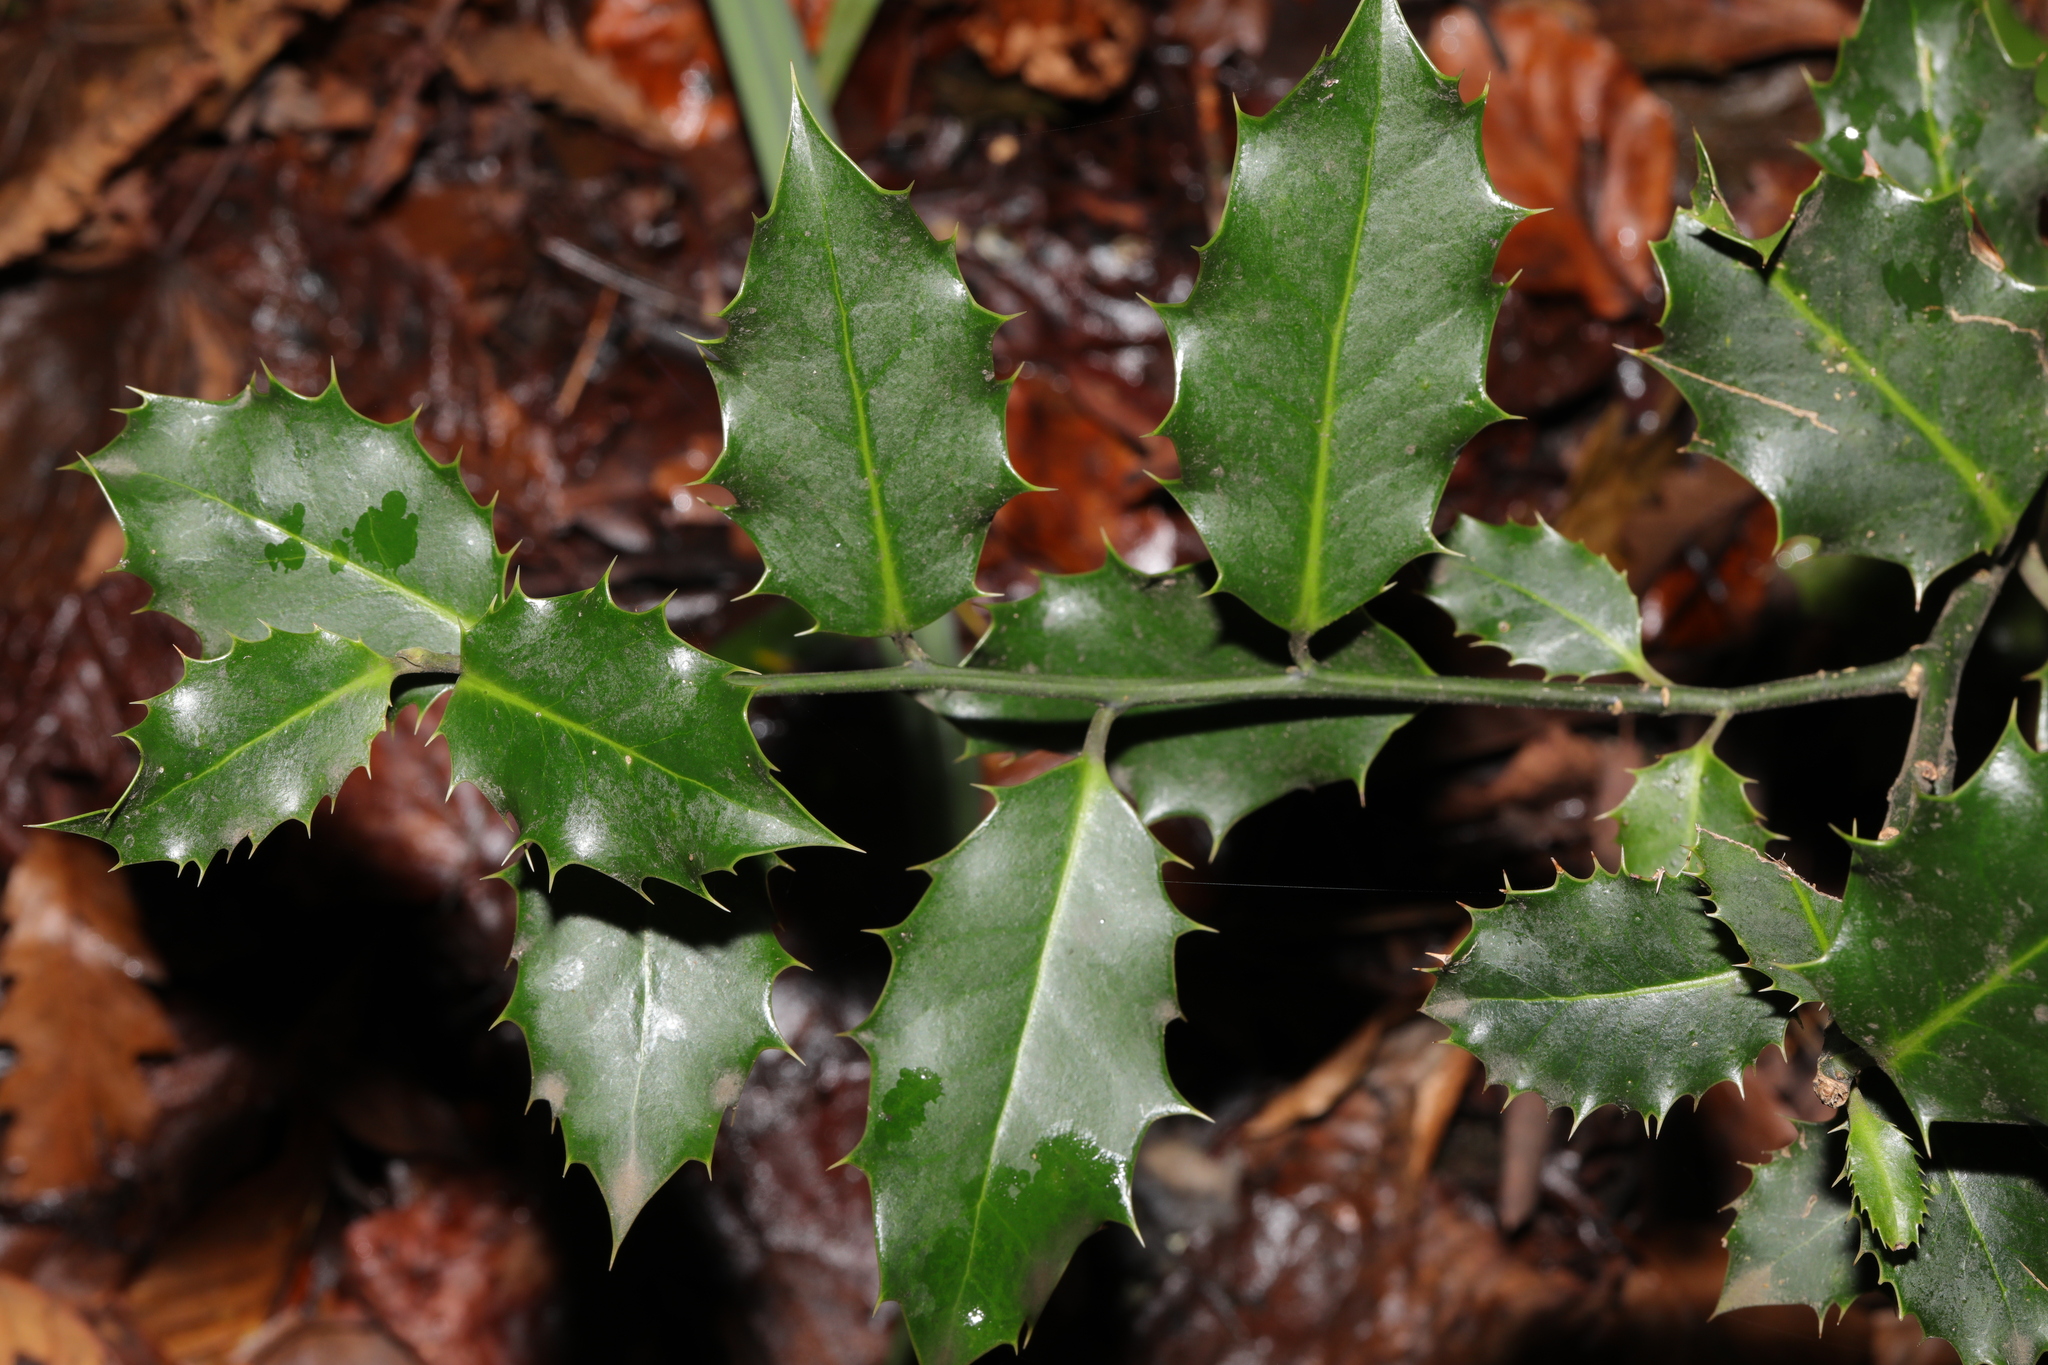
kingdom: Plantae
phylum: Tracheophyta
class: Magnoliopsida
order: Aquifoliales
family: Aquifoliaceae
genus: Ilex
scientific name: Ilex aquifolium
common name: English holly
